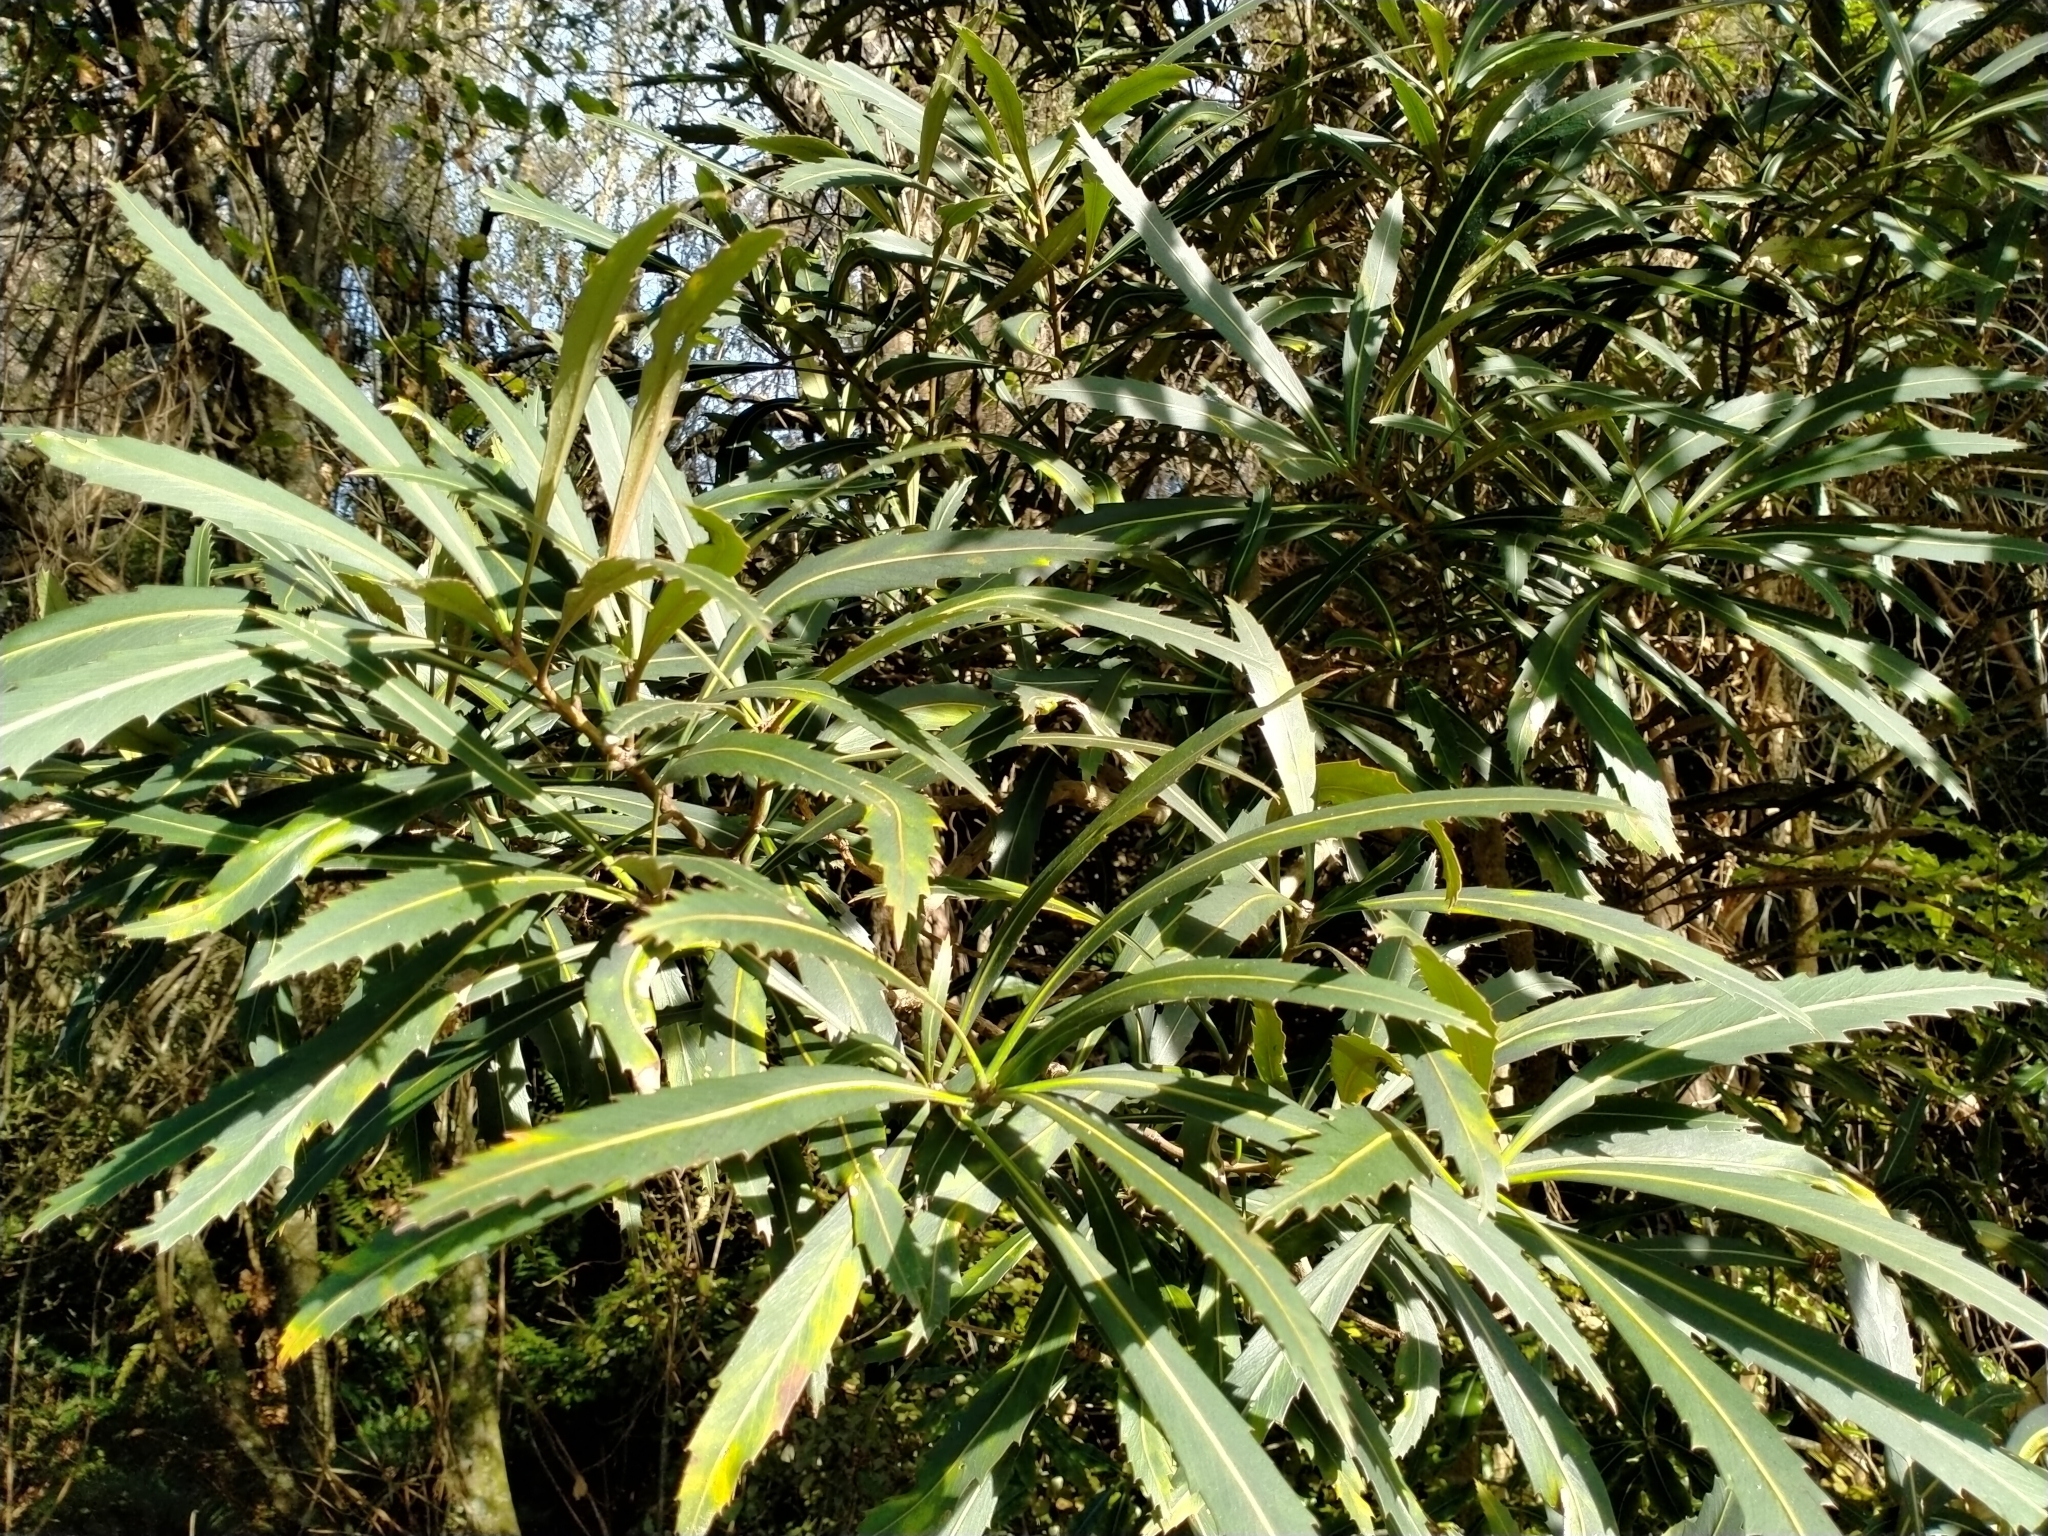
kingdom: Plantae
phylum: Tracheophyta
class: Magnoliopsida
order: Apiales
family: Araliaceae
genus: Pseudopanax
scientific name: Pseudopanax crassifolius
